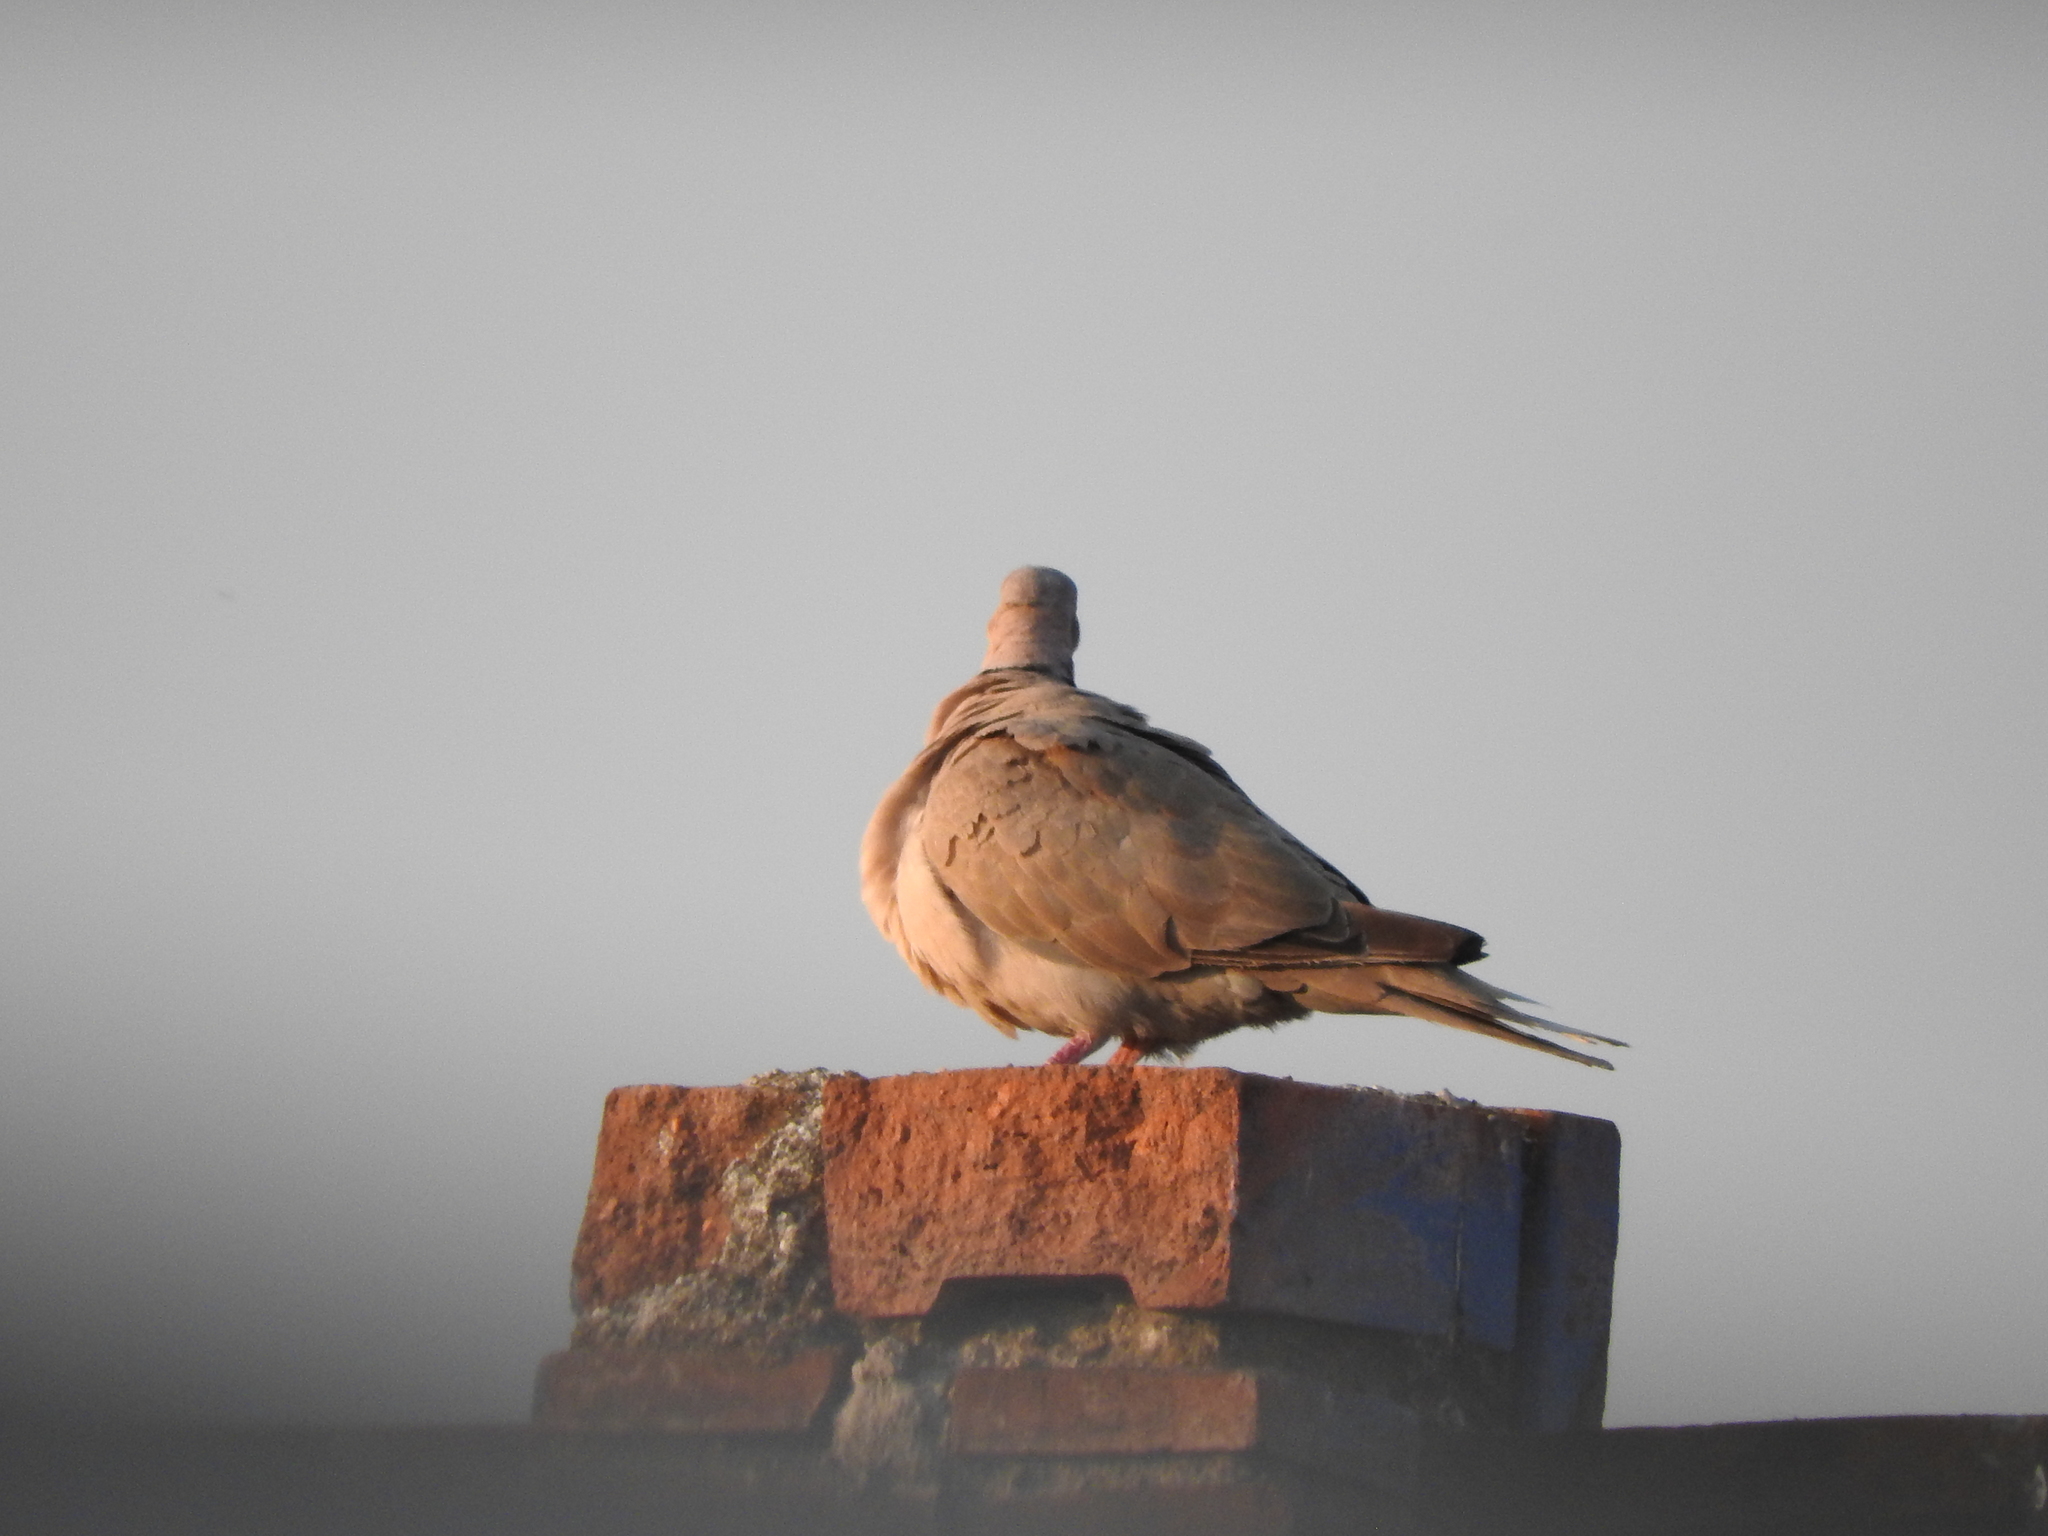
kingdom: Animalia
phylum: Chordata
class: Aves
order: Columbiformes
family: Columbidae
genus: Streptopelia
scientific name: Streptopelia decaocto
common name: Eurasian collared dove
